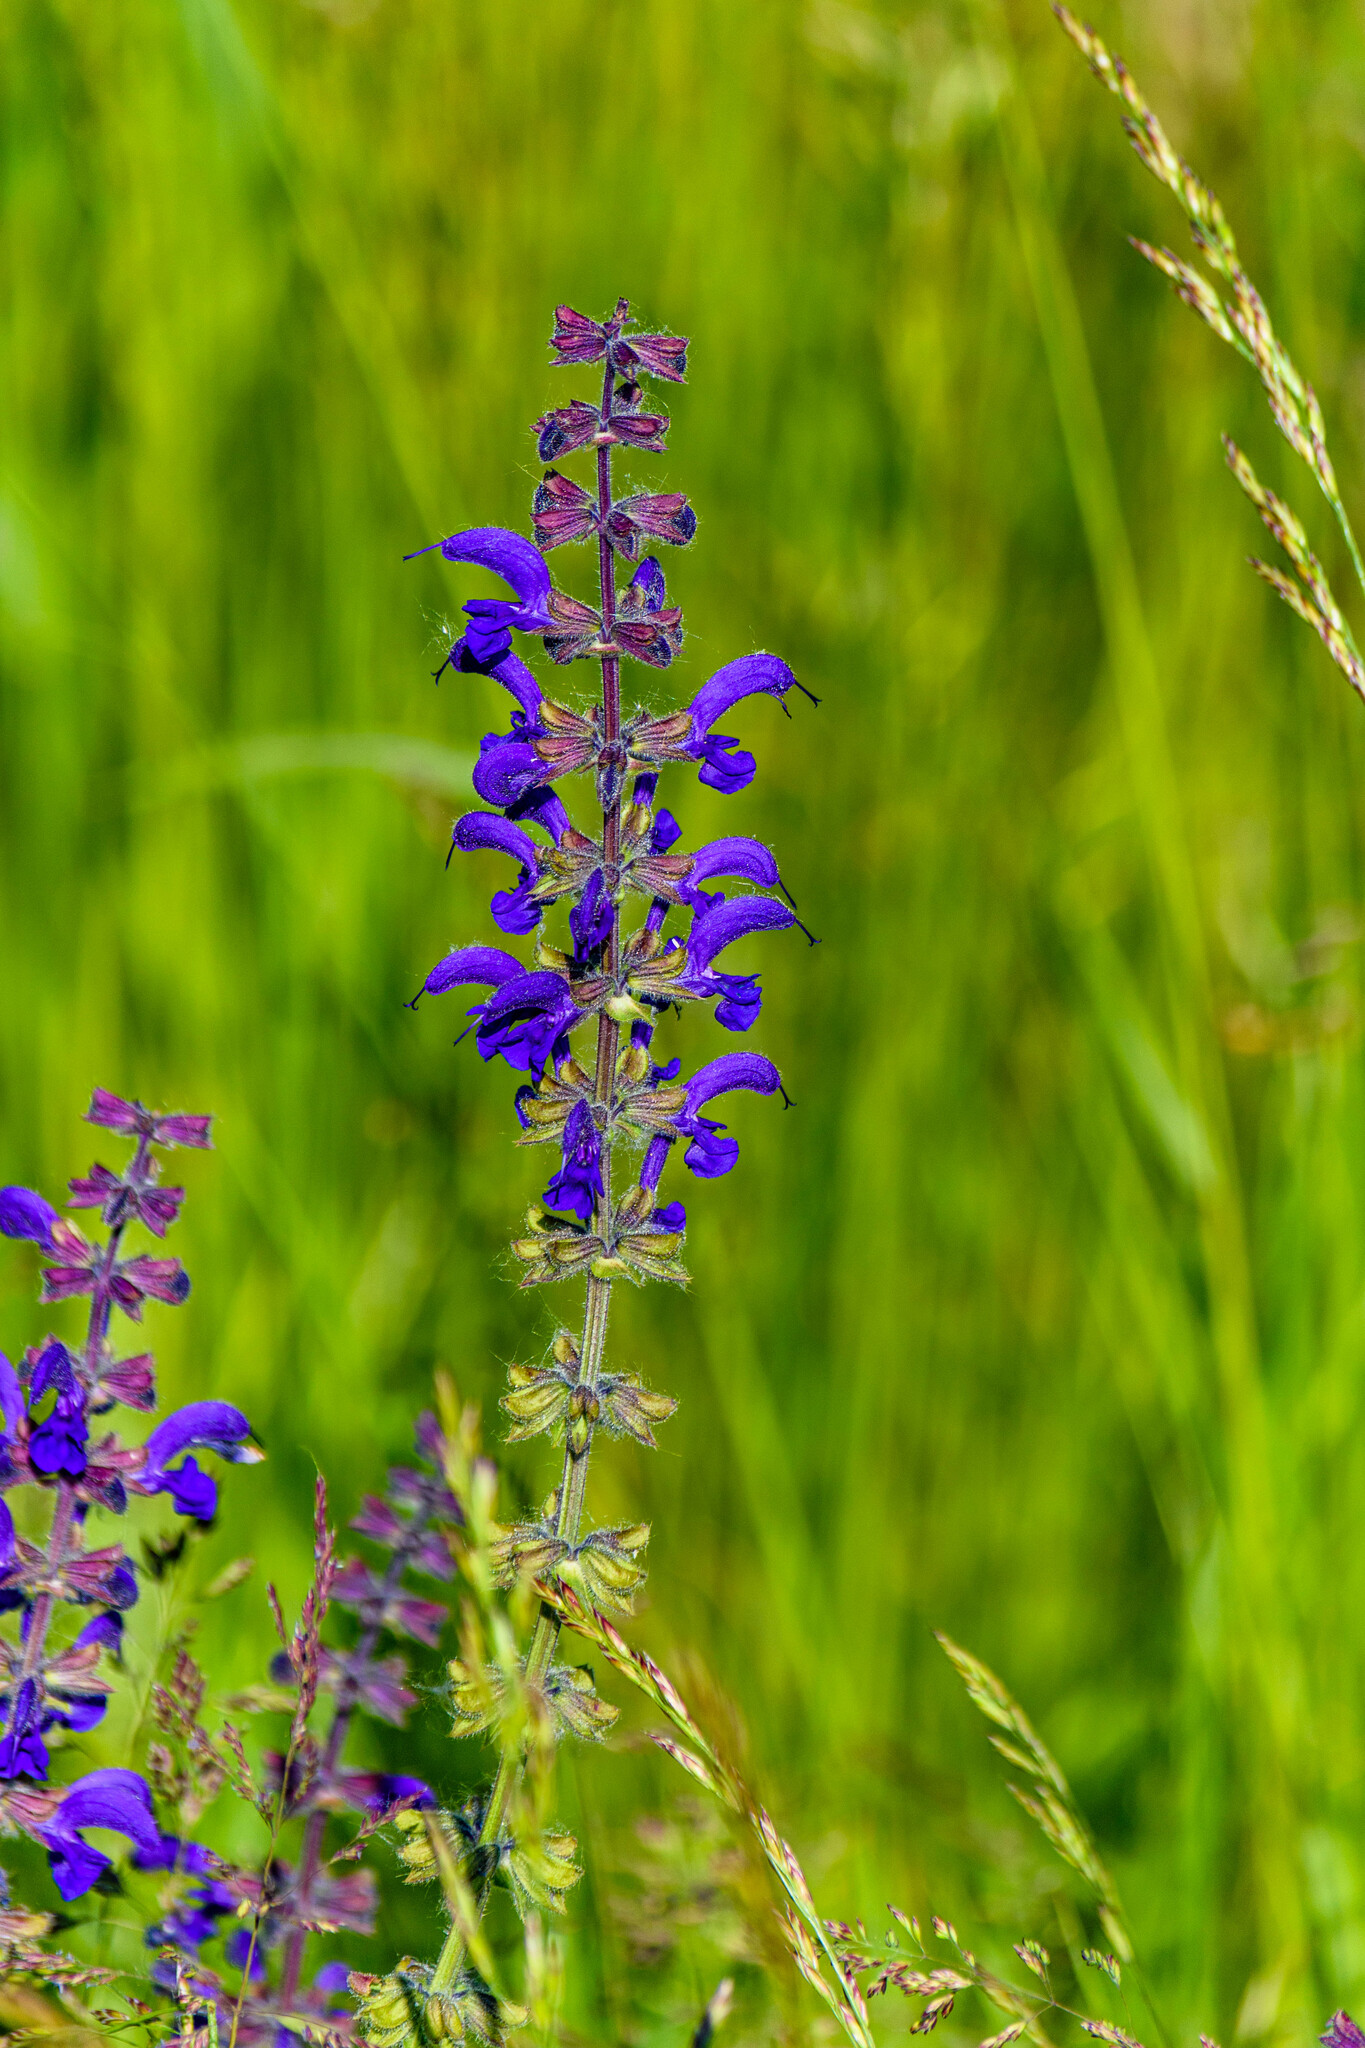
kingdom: Plantae
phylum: Tracheophyta
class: Magnoliopsida
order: Lamiales
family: Lamiaceae
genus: Salvia
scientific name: Salvia pratensis
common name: Meadow sage
